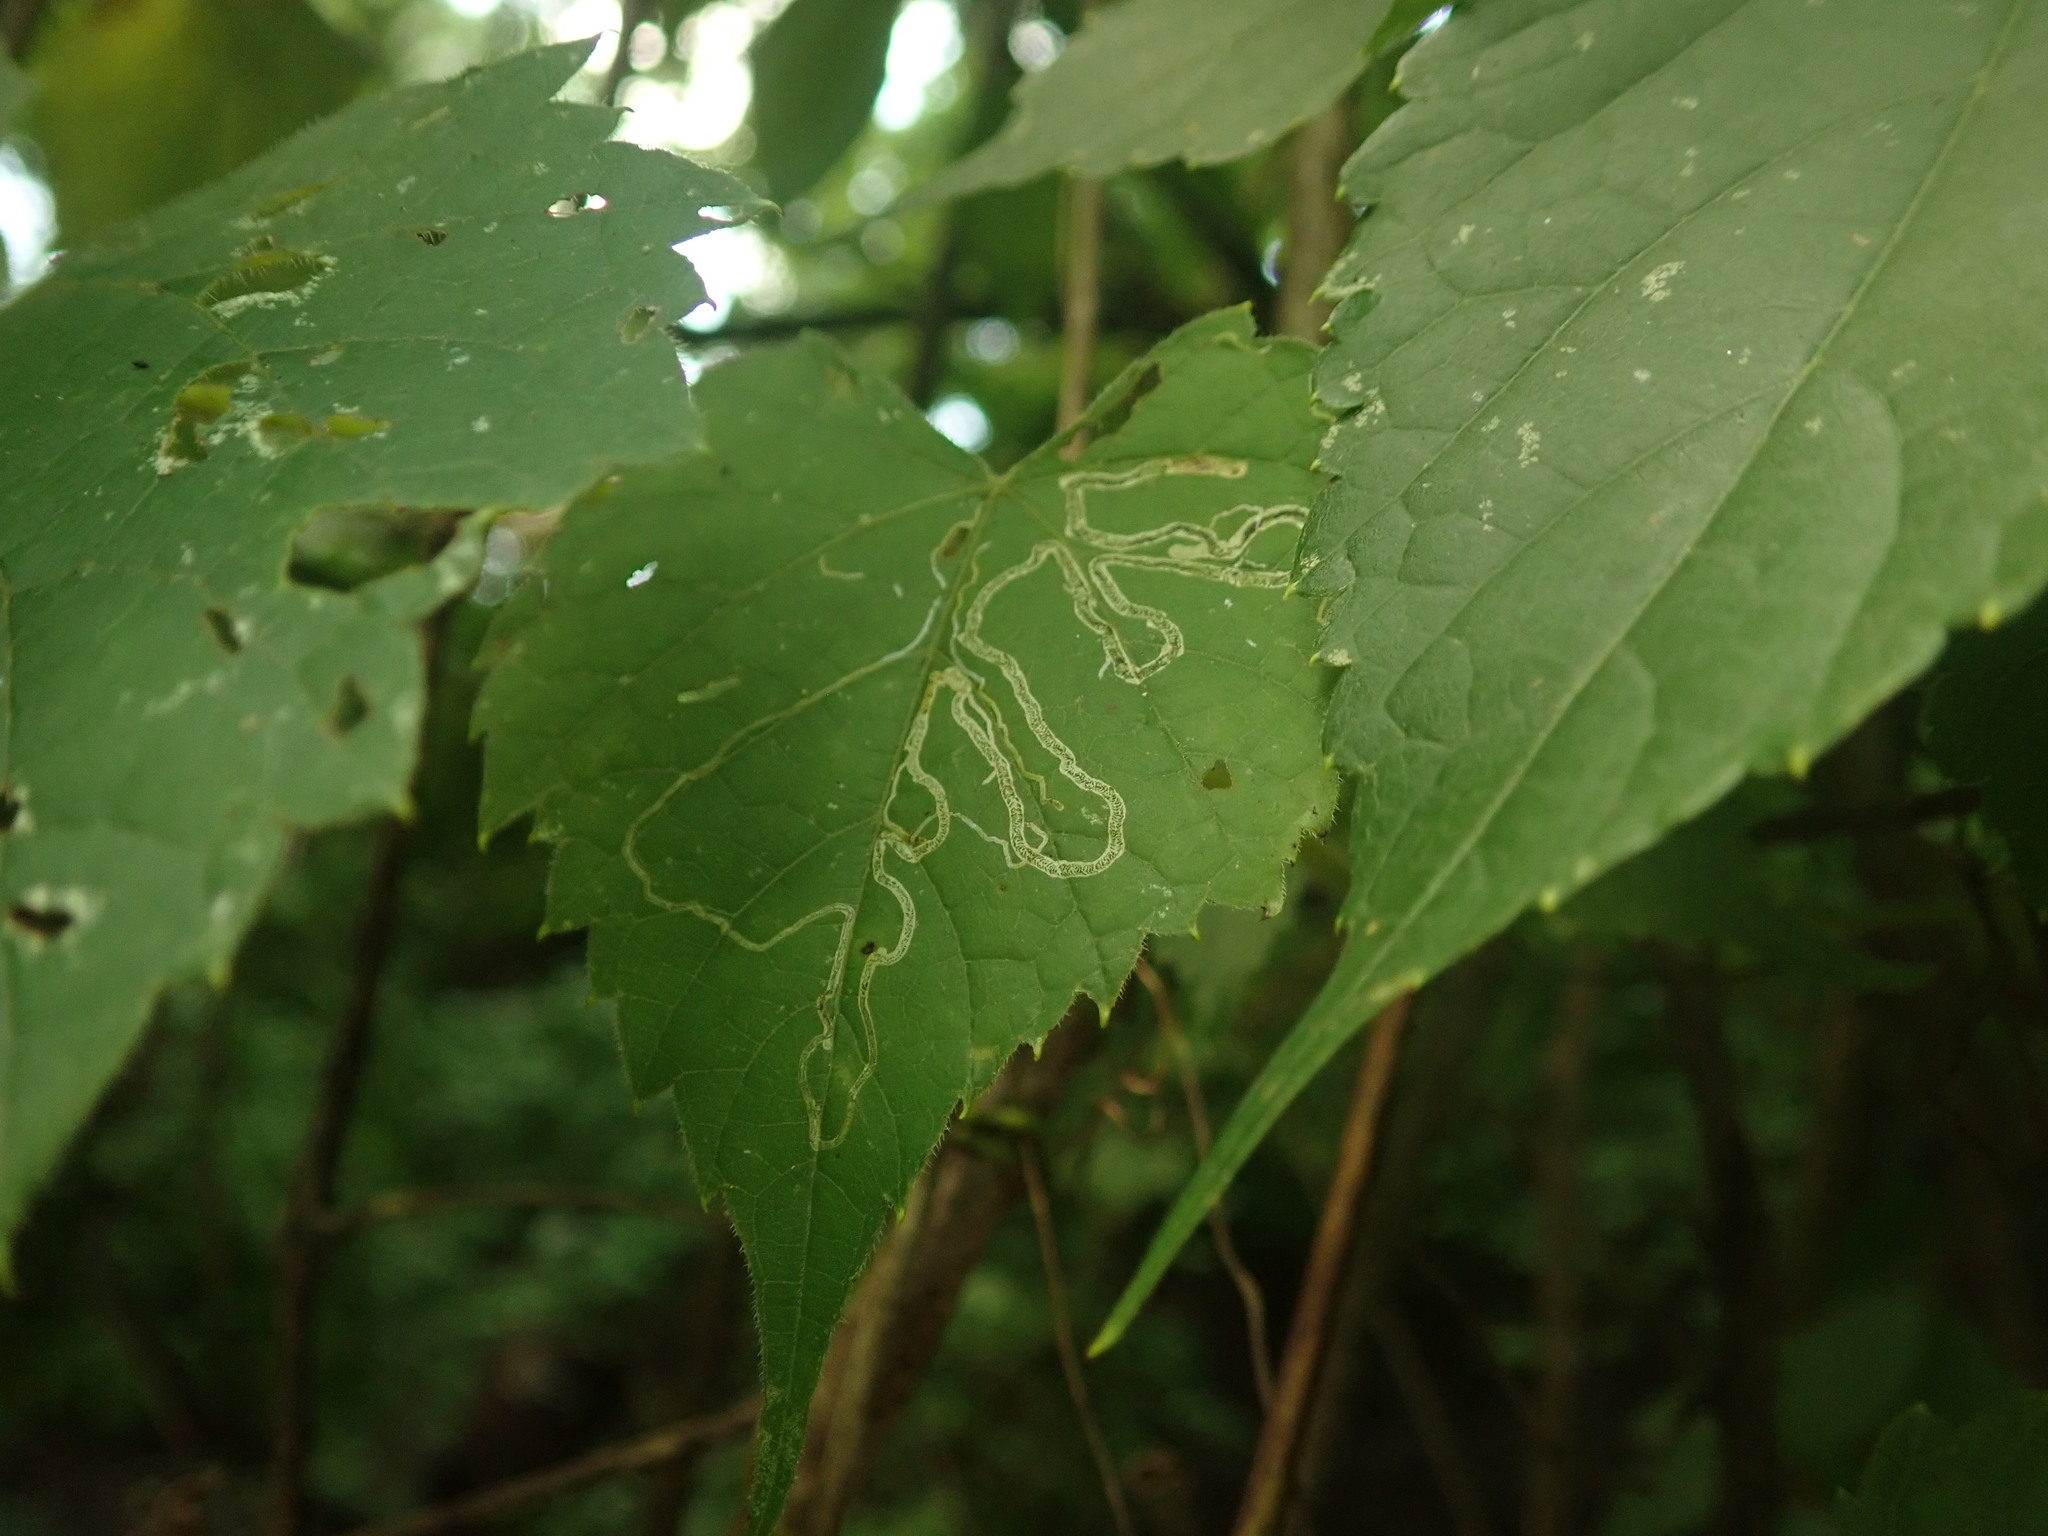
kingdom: Animalia
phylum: Arthropoda
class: Insecta
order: Lepidoptera
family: Gracillariidae
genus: Phyllocnistis
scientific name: Phyllocnistis vitifoliella
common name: Grape leaf-miner moth
